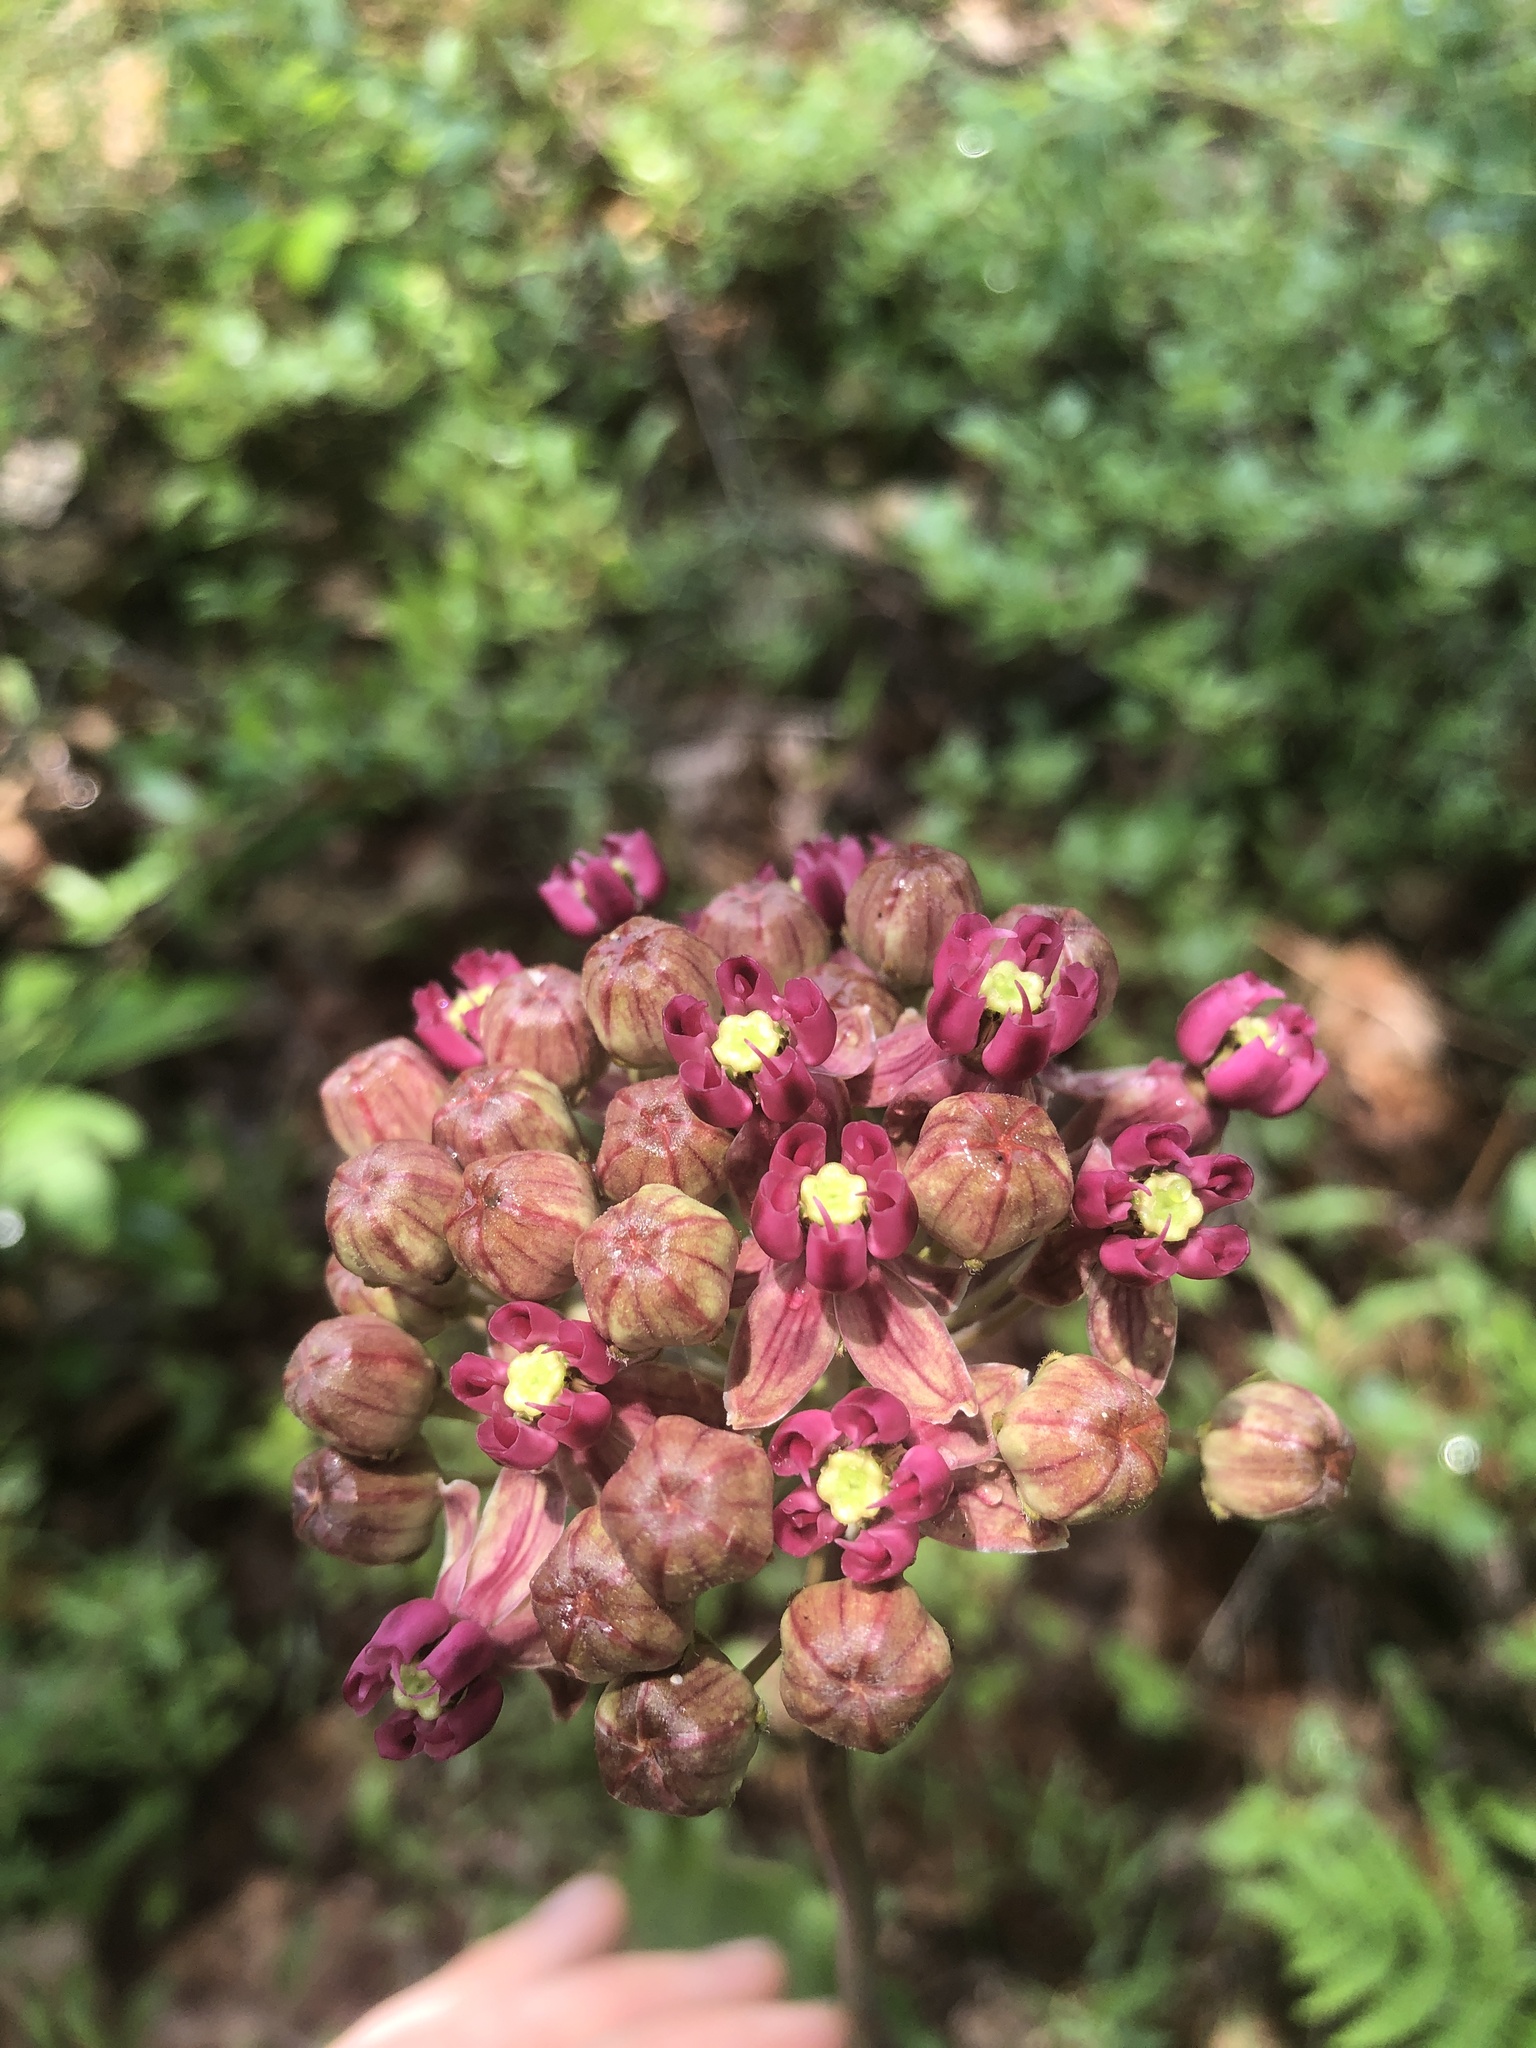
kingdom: Plantae
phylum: Tracheophyta
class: Magnoliopsida
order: Gentianales
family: Apocynaceae
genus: Asclepias
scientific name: Asclepias amplexicaulis
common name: Blunt-leaf milkweed
